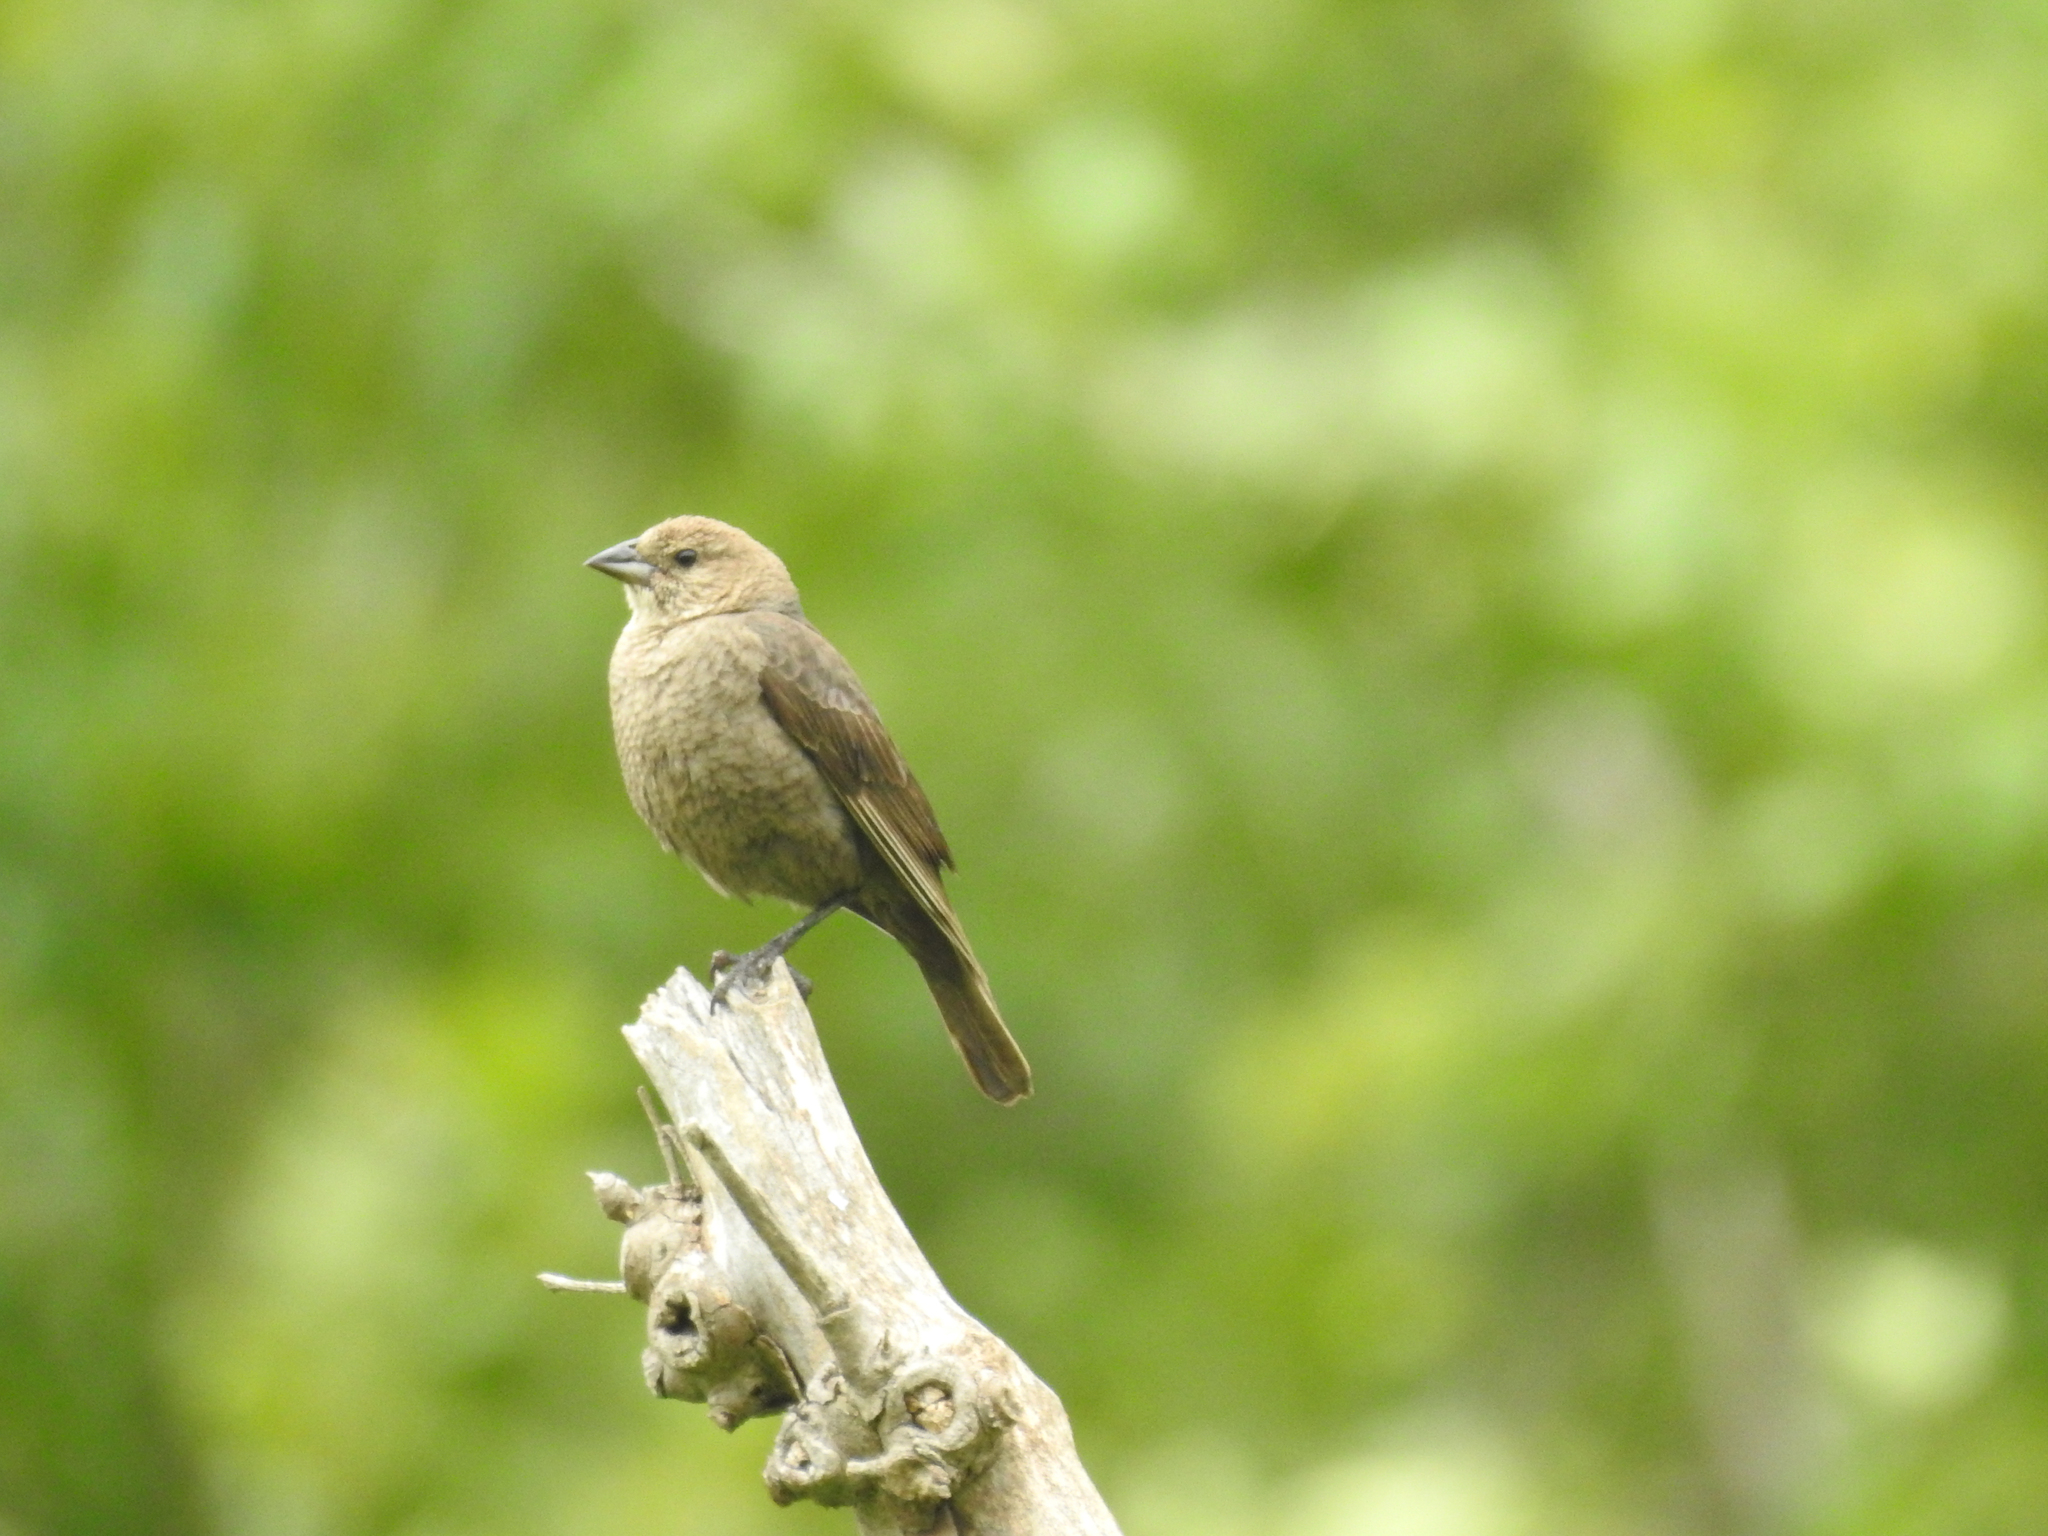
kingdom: Animalia
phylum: Chordata
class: Aves
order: Passeriformes
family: Icteridae
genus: Molothrus
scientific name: Molothrus ater
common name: Brown-headed cowbird
